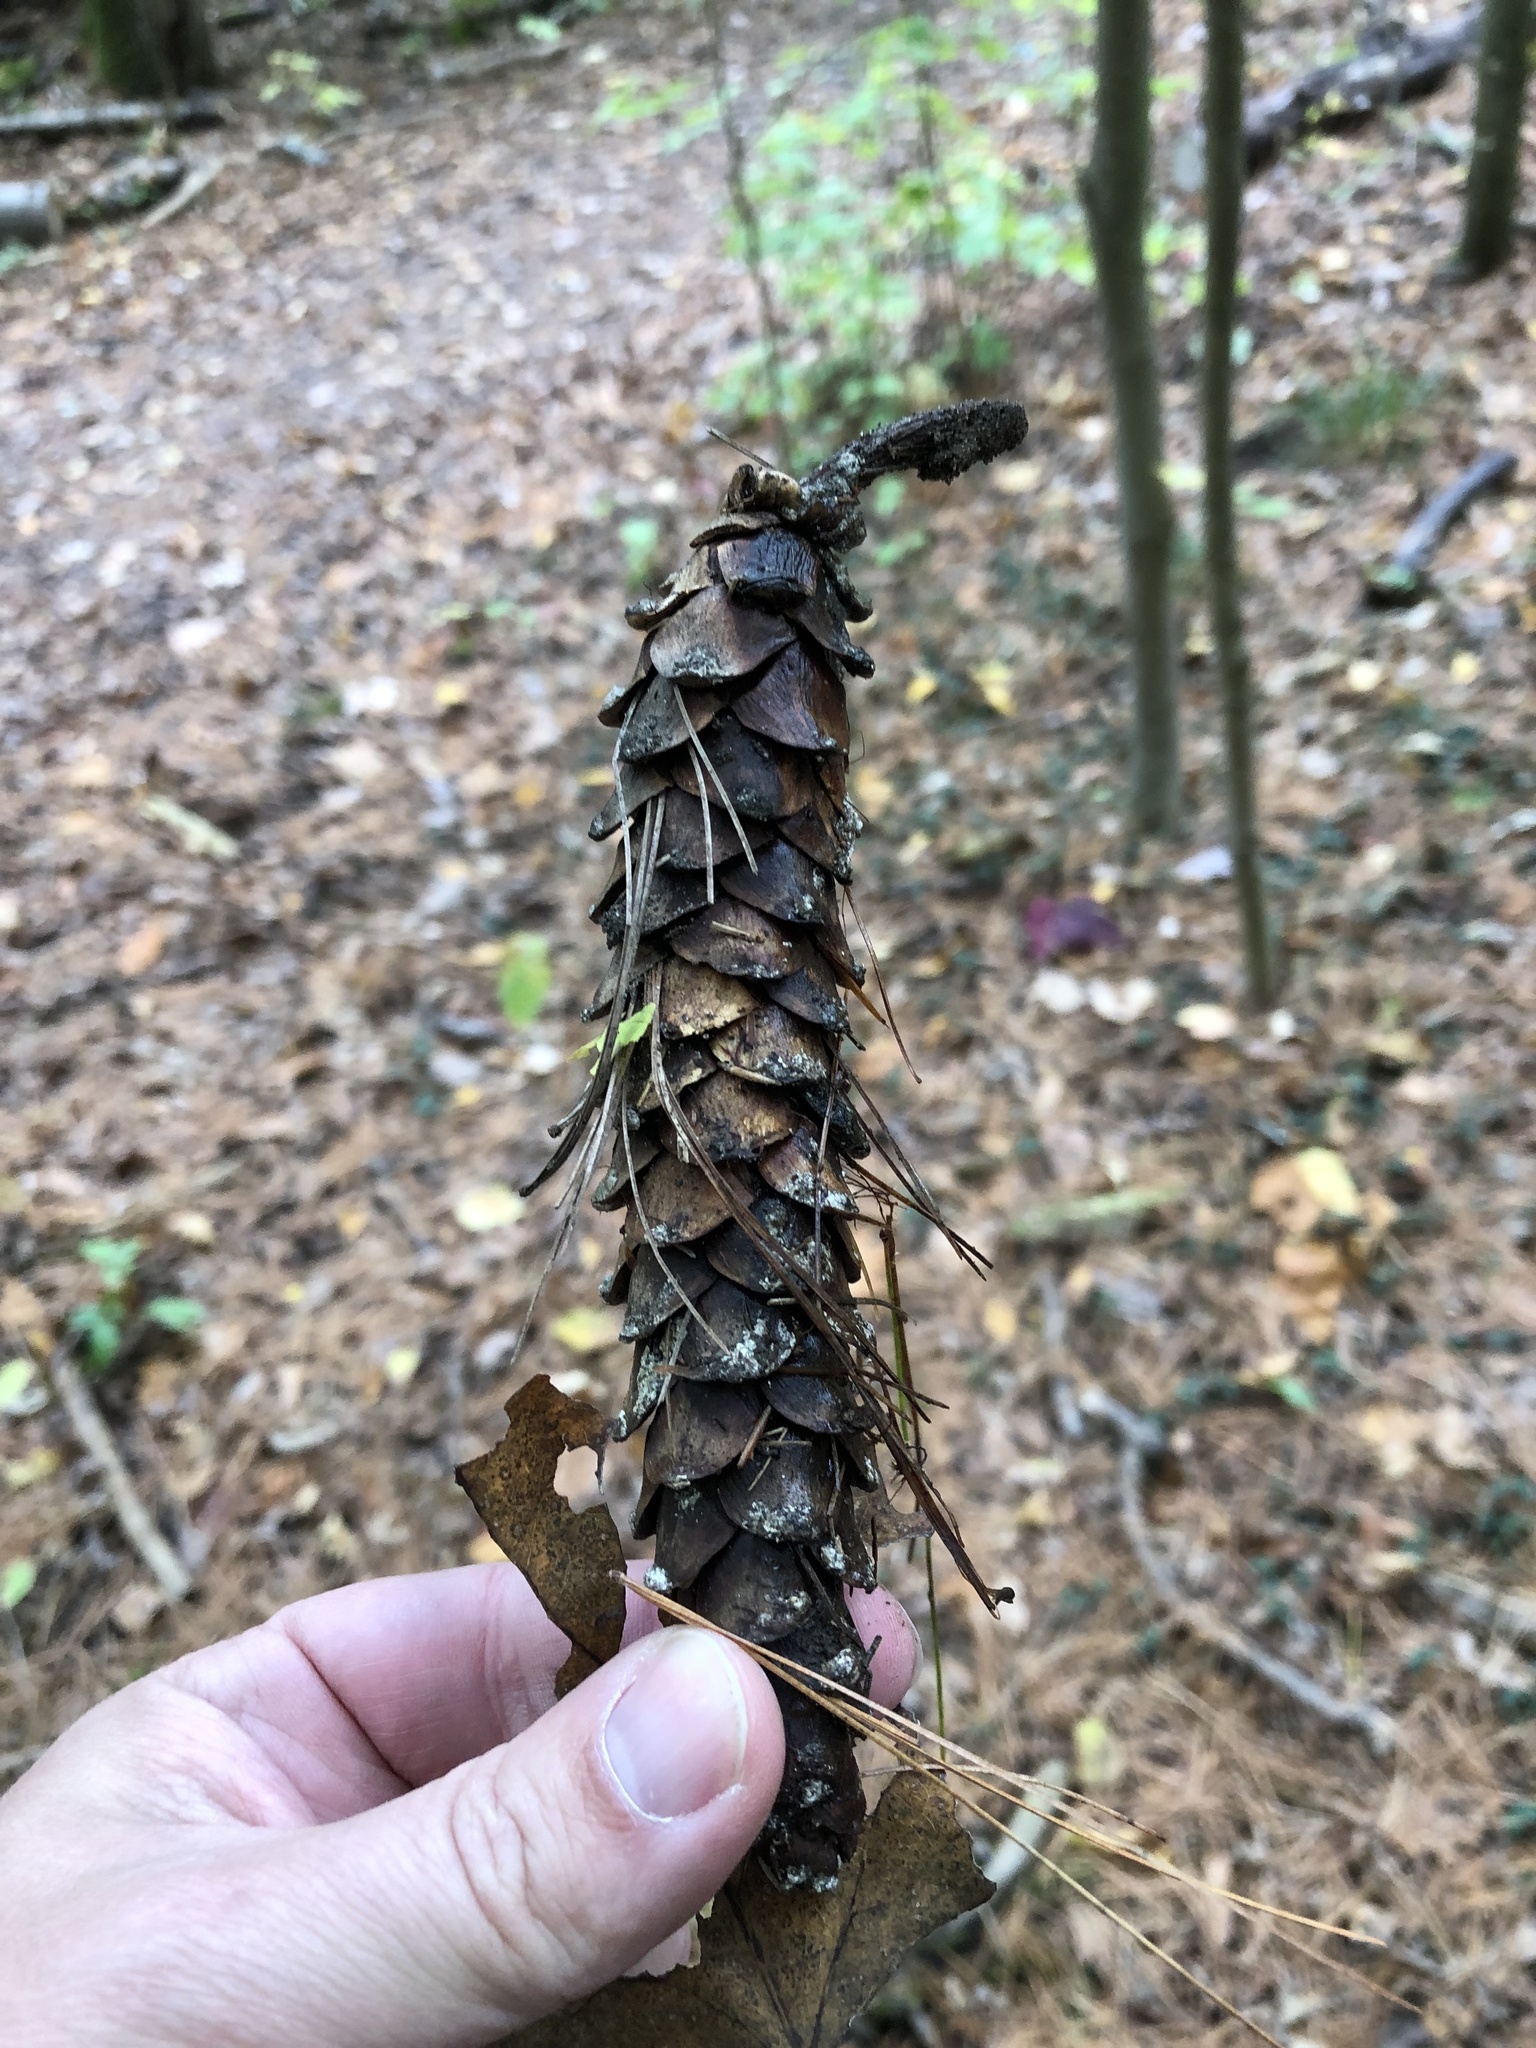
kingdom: Plantae
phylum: Tracheophyta
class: Pinopsida
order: Pinales
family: Pinaceae
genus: Pinus
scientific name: Pinus strobus
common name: Weymouth pine
